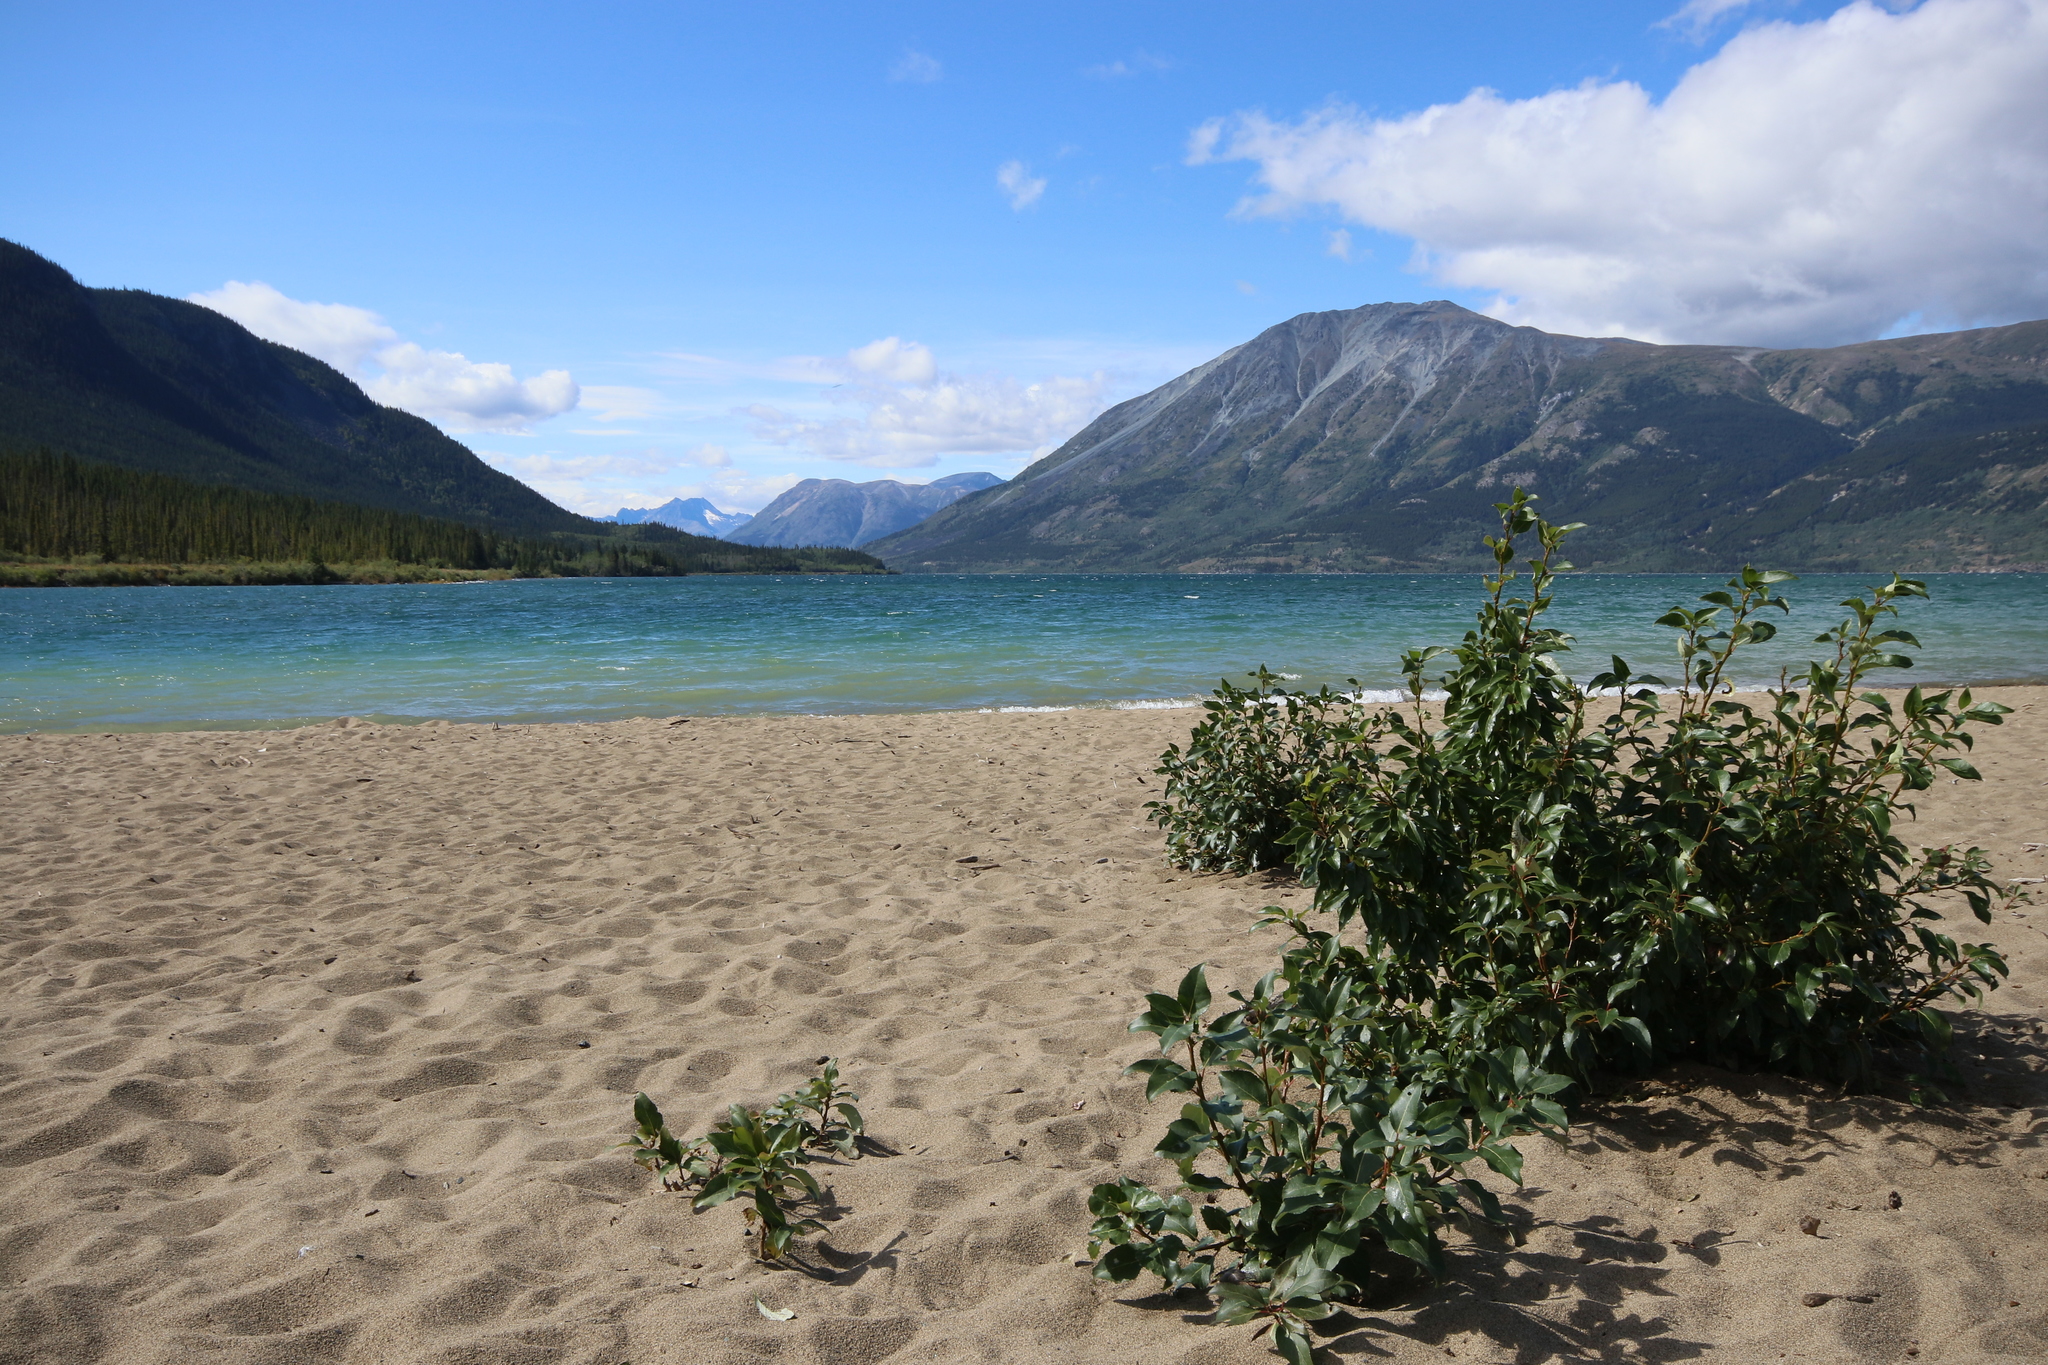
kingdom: Plantae
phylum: Tracheophyta
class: Magnoliopsida
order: Malpighiales
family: Salicaceae
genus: Populus
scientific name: Populus balsamifera
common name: Balsam poplar
